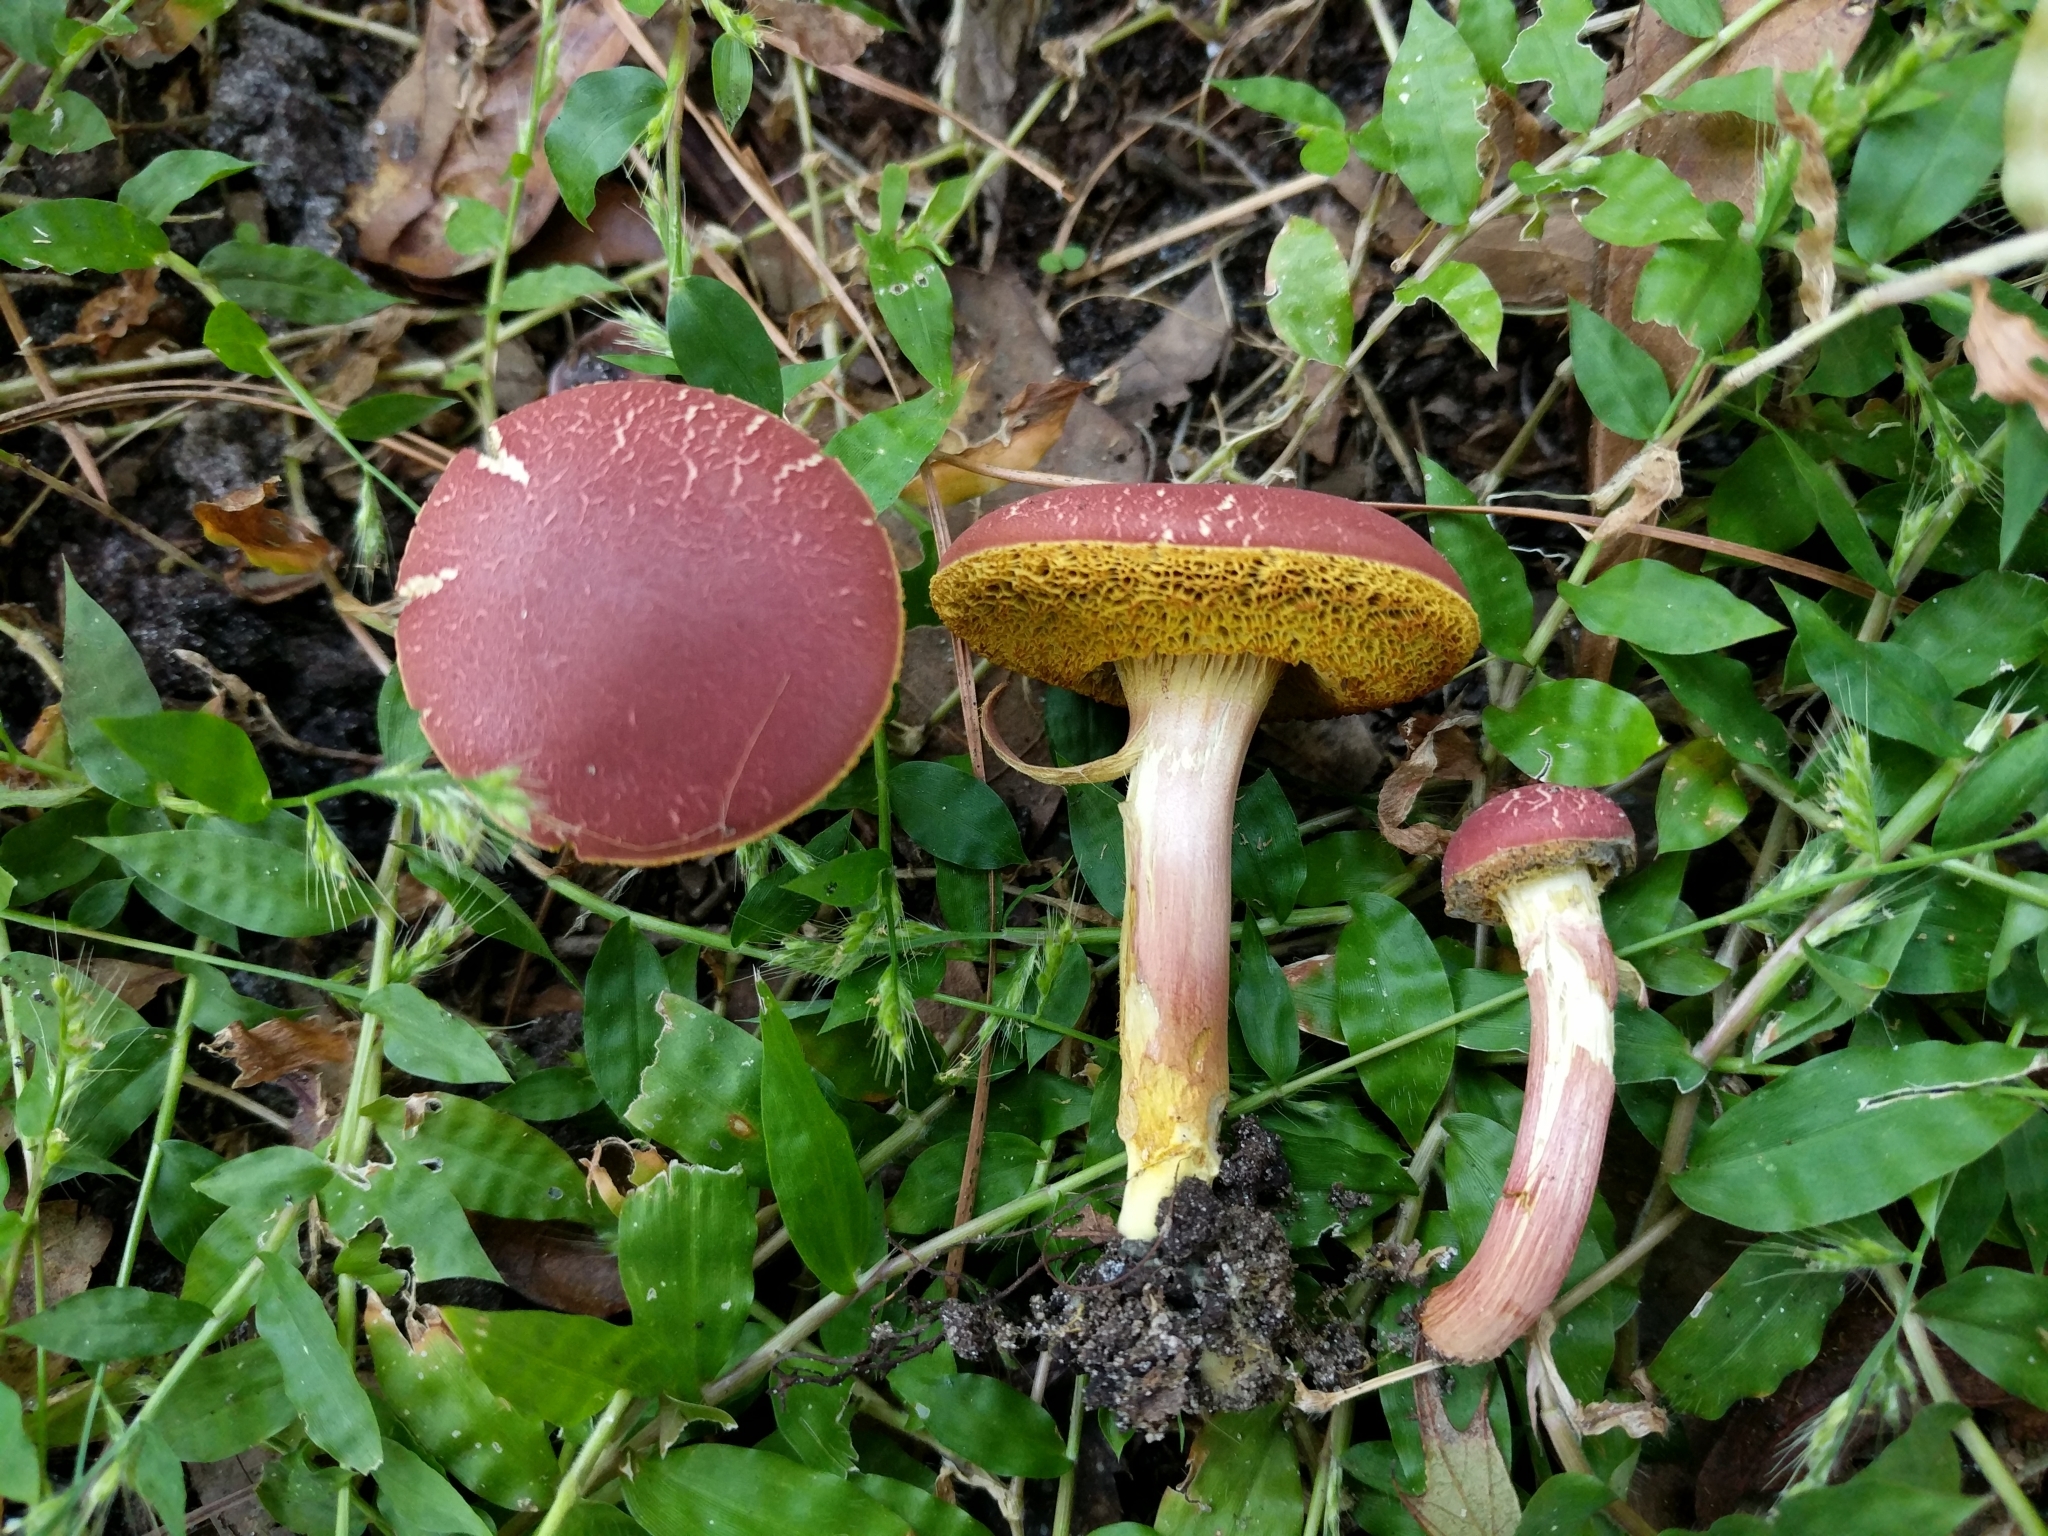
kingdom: Fungi
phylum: Basidiomycota
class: Agaricomycetes
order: Boletales
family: Boletaceae
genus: Hortiboletus
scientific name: Hortiboletus rubellus
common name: Ruby bolete
